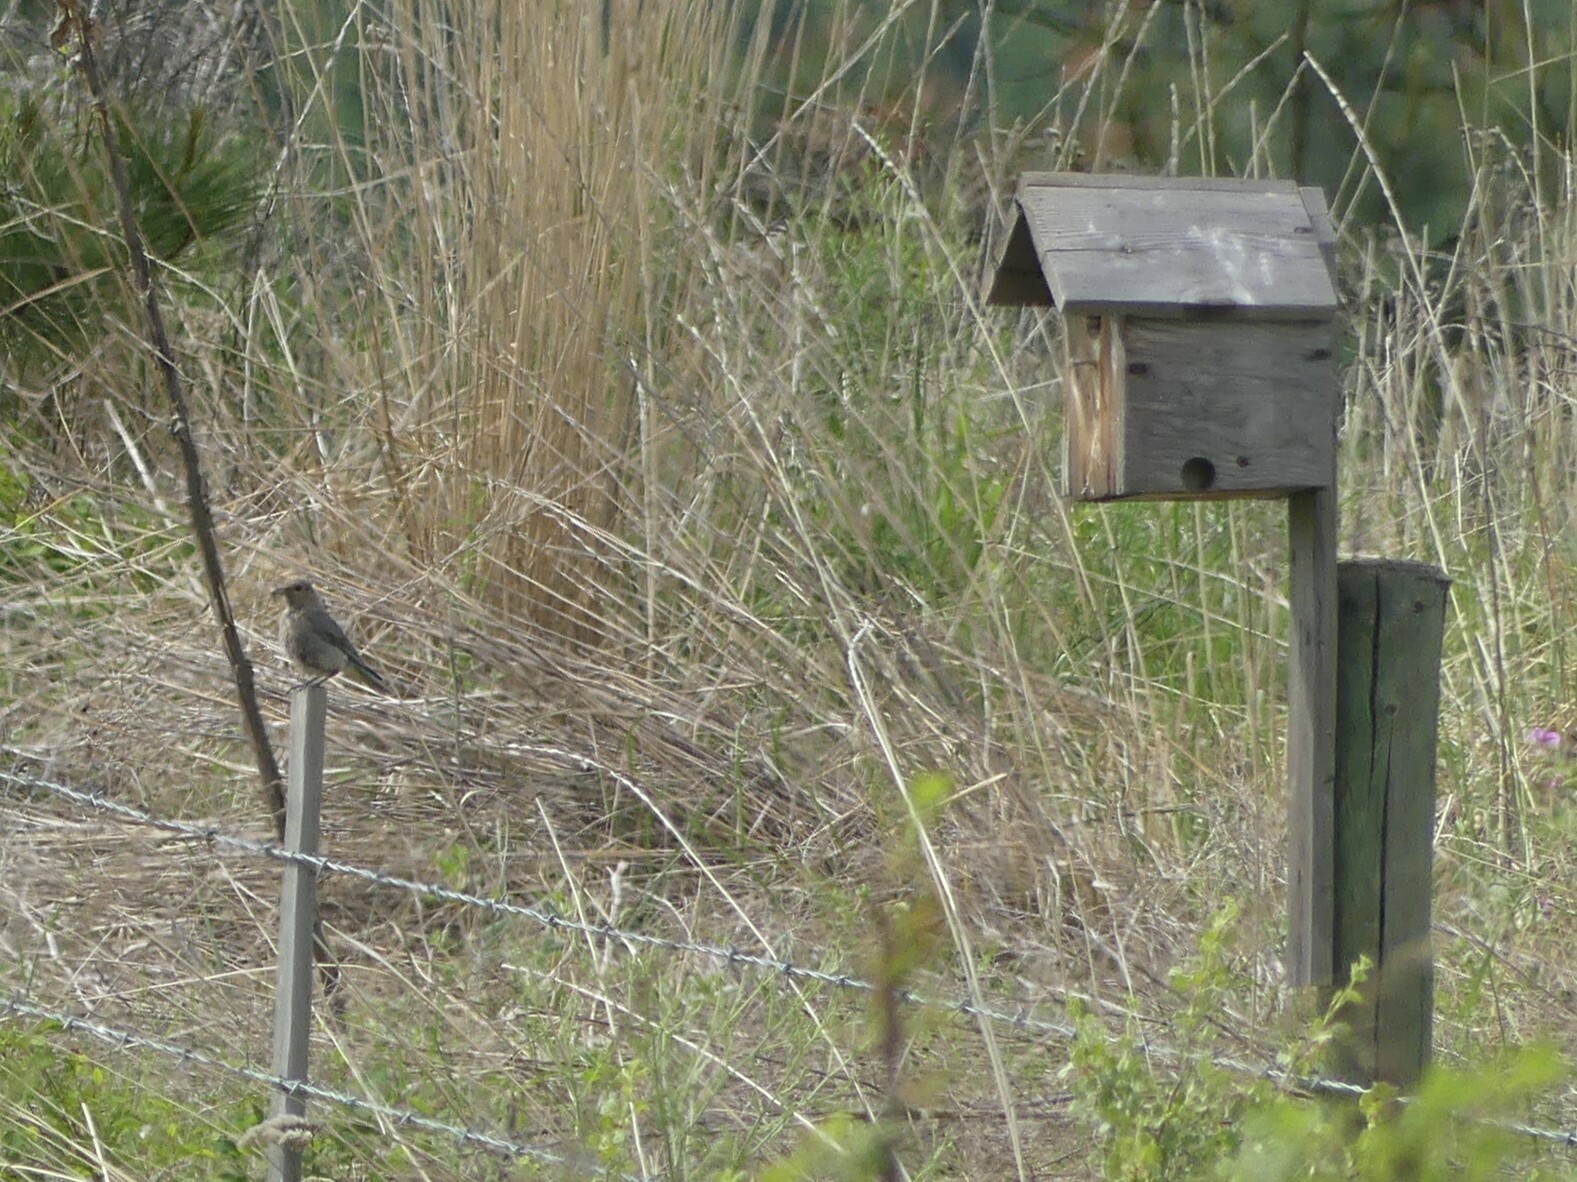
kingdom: Animalia
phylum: Chordata
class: Aves
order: Passeriformes
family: Turdidae
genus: Sialia
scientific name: Sialia currucoides
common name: Mountain bluebird
